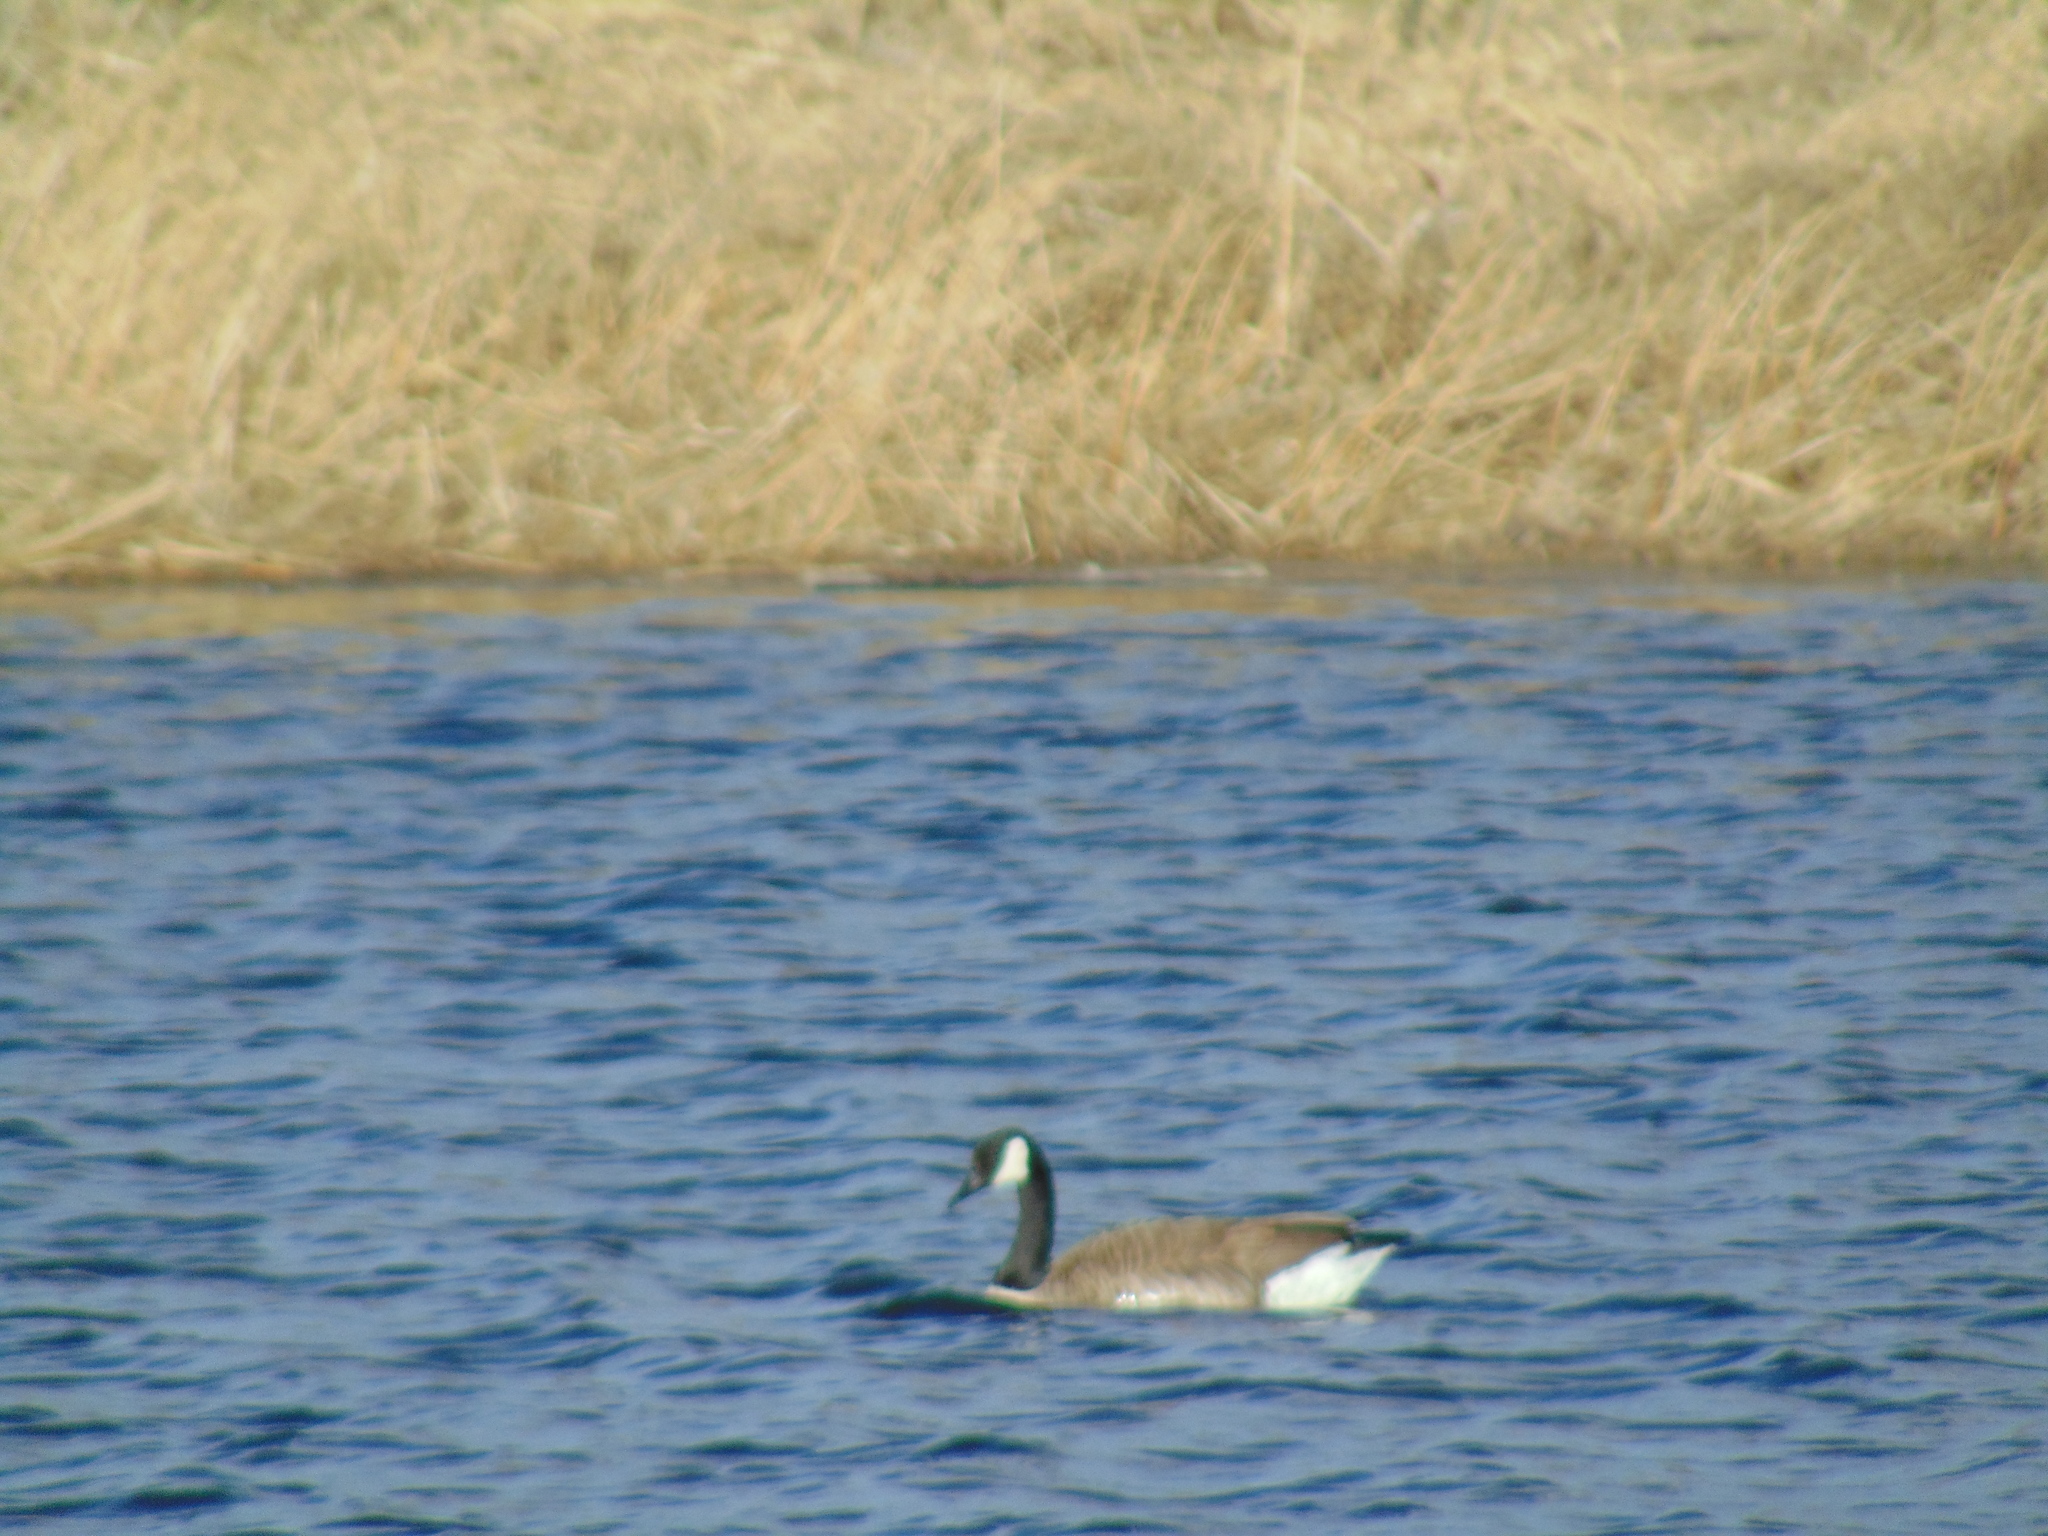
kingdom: Animalia
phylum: Chordata
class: Aves
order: Anseriformes
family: Anatidae
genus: Branta
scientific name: Branta canadensis
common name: Canada goose
